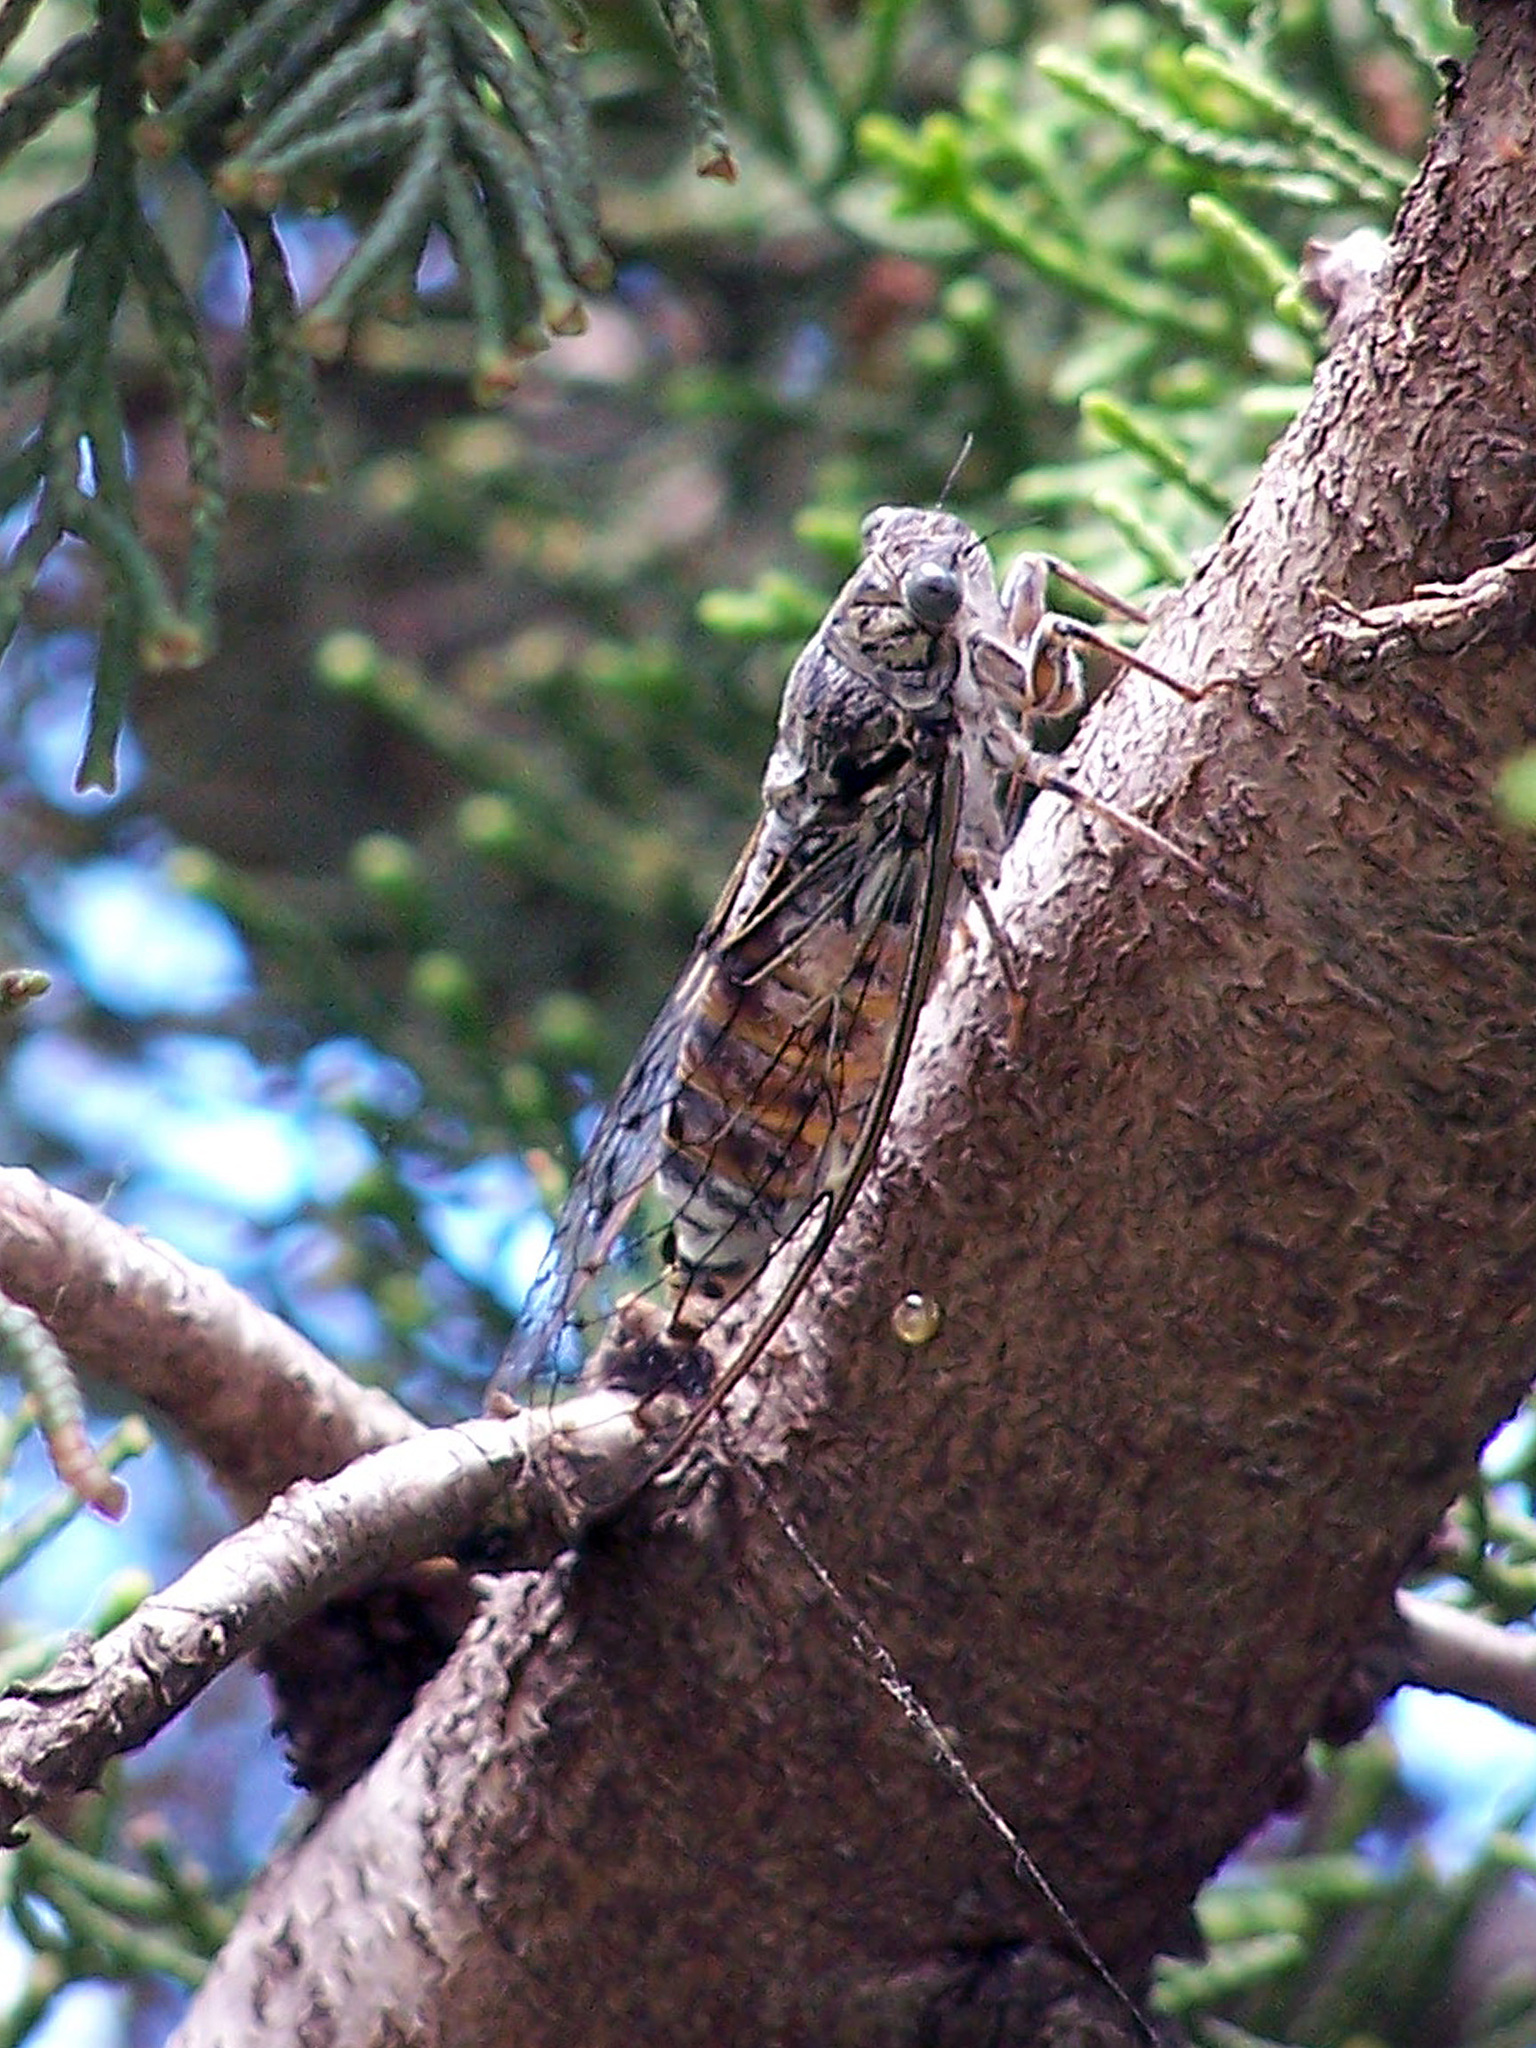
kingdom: Animalia
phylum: Arthropoda
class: Insecta
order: Hemiptera
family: Cicadidae
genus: Cicada
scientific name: Cicada orni
